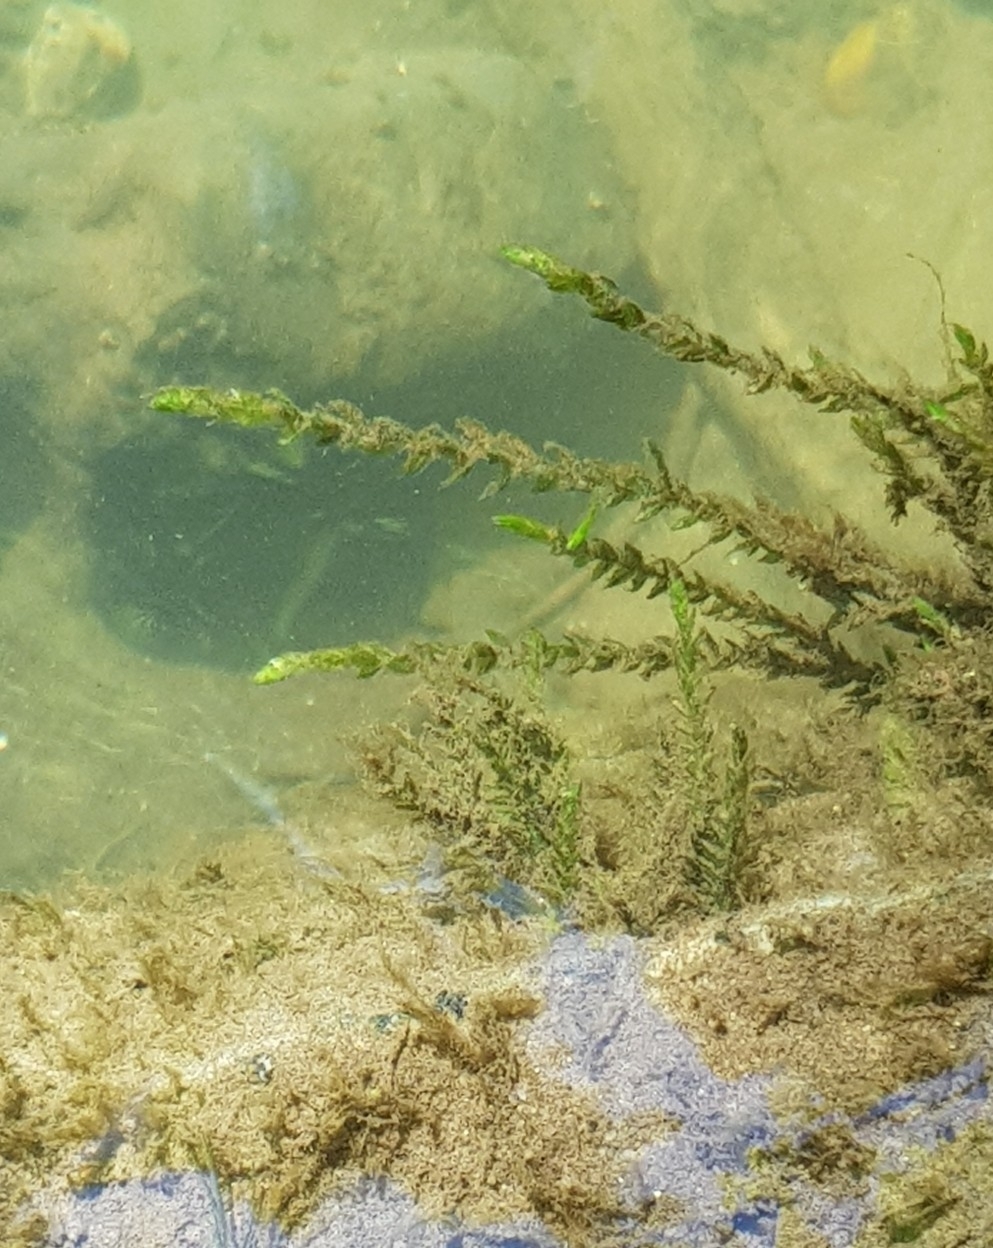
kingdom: Plantae
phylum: Bryophyta
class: Bryopsida
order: Hypnales
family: Fontinalaceae
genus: Fontinalis
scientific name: Fontinalis antipyretica
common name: Greater water-moss
